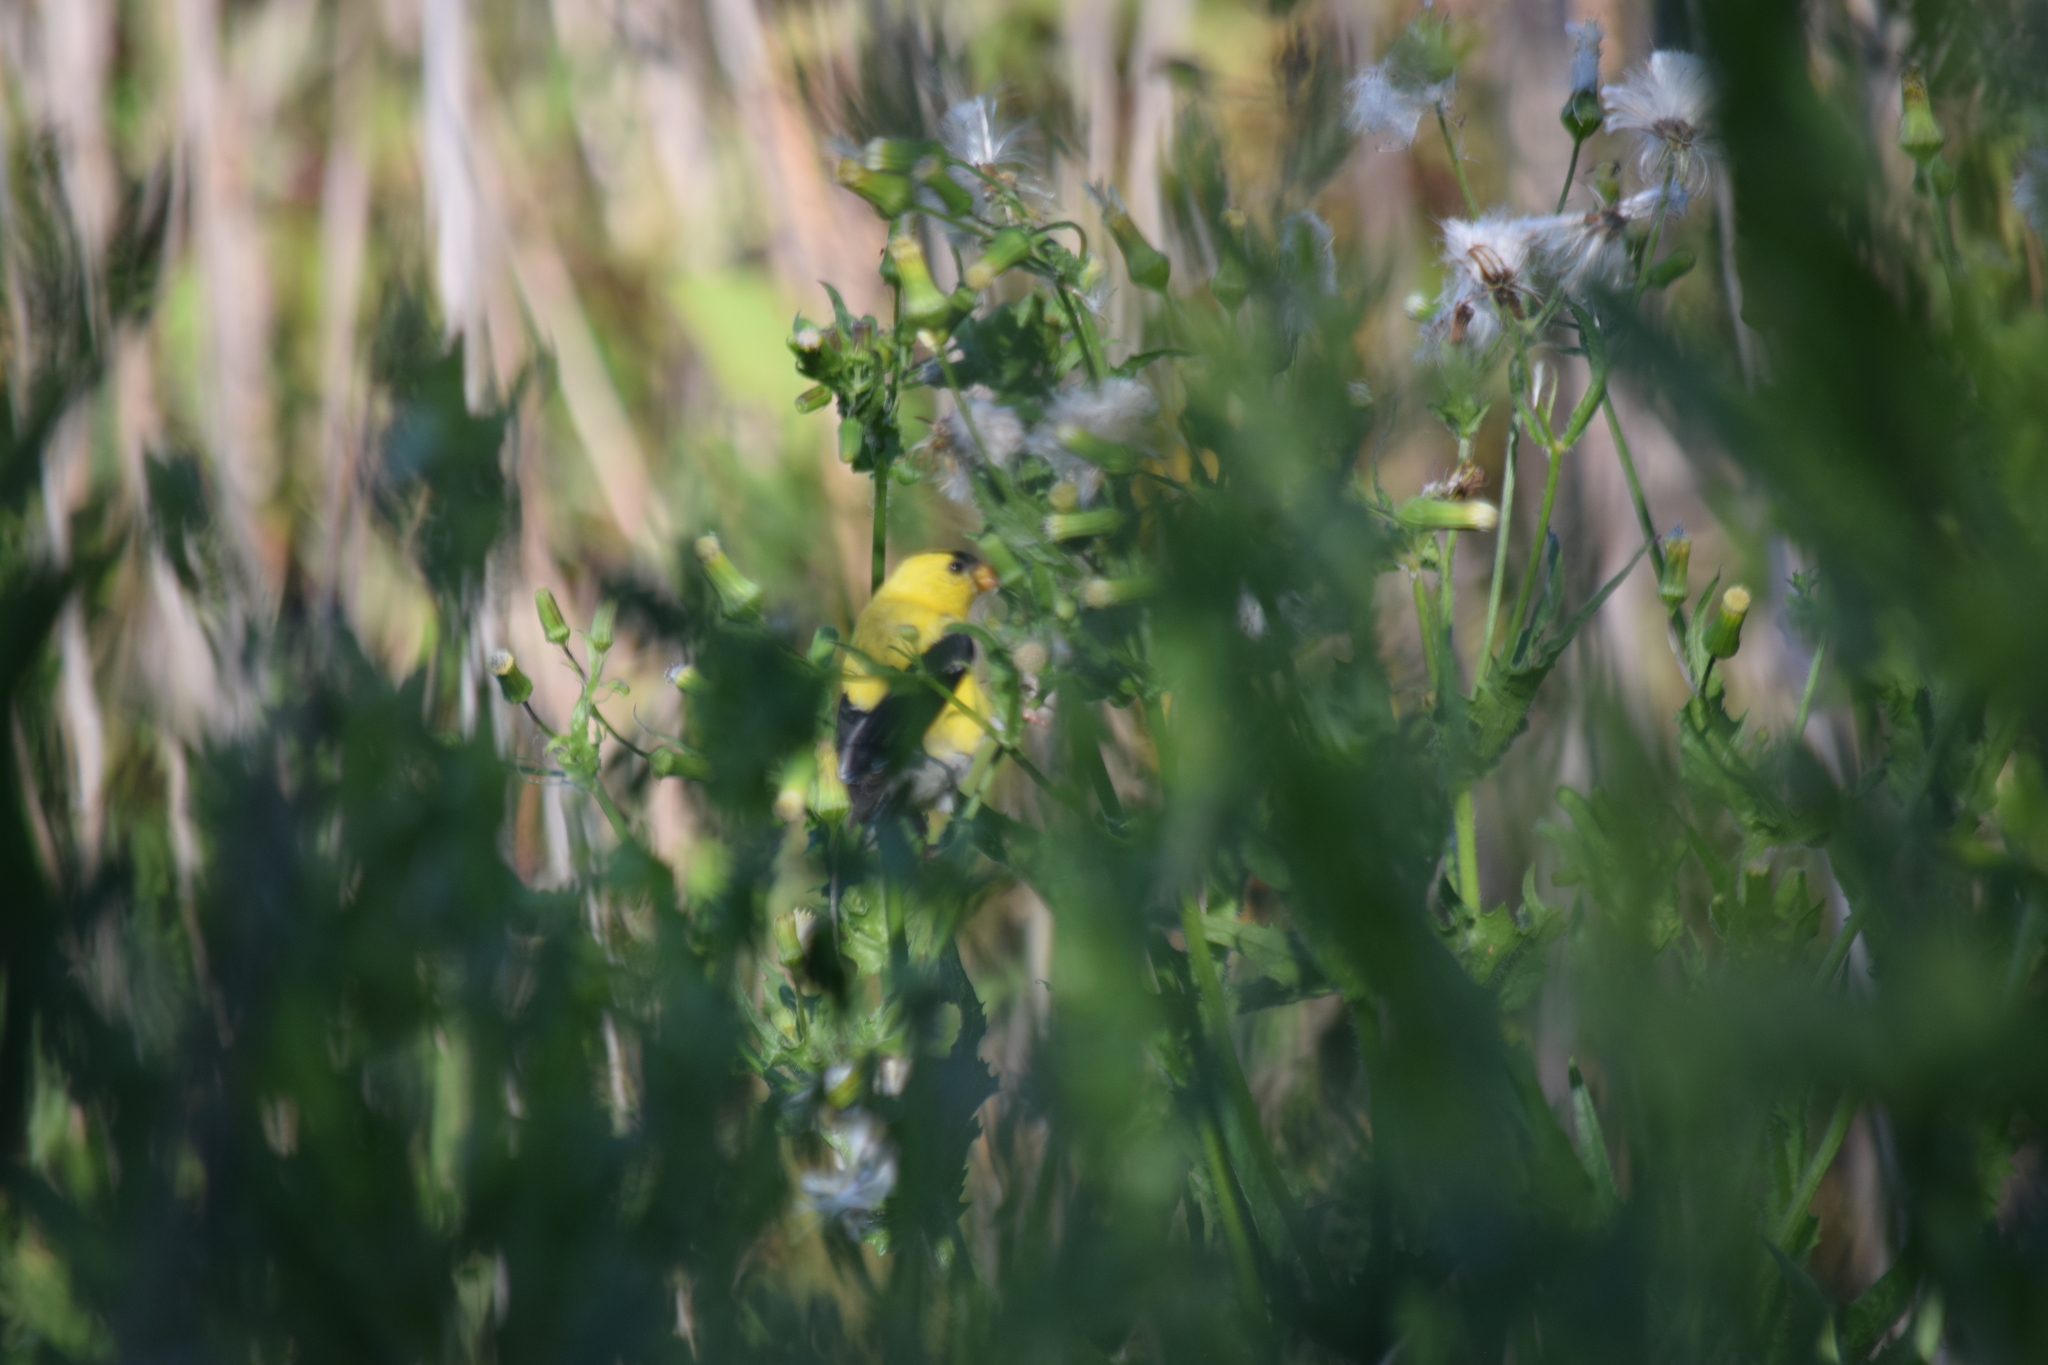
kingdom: Animalia
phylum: Chordata
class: Aves
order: Passeriformes
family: Fringillidae
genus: Spinus
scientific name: Spinus tristis
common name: American goldfinch
